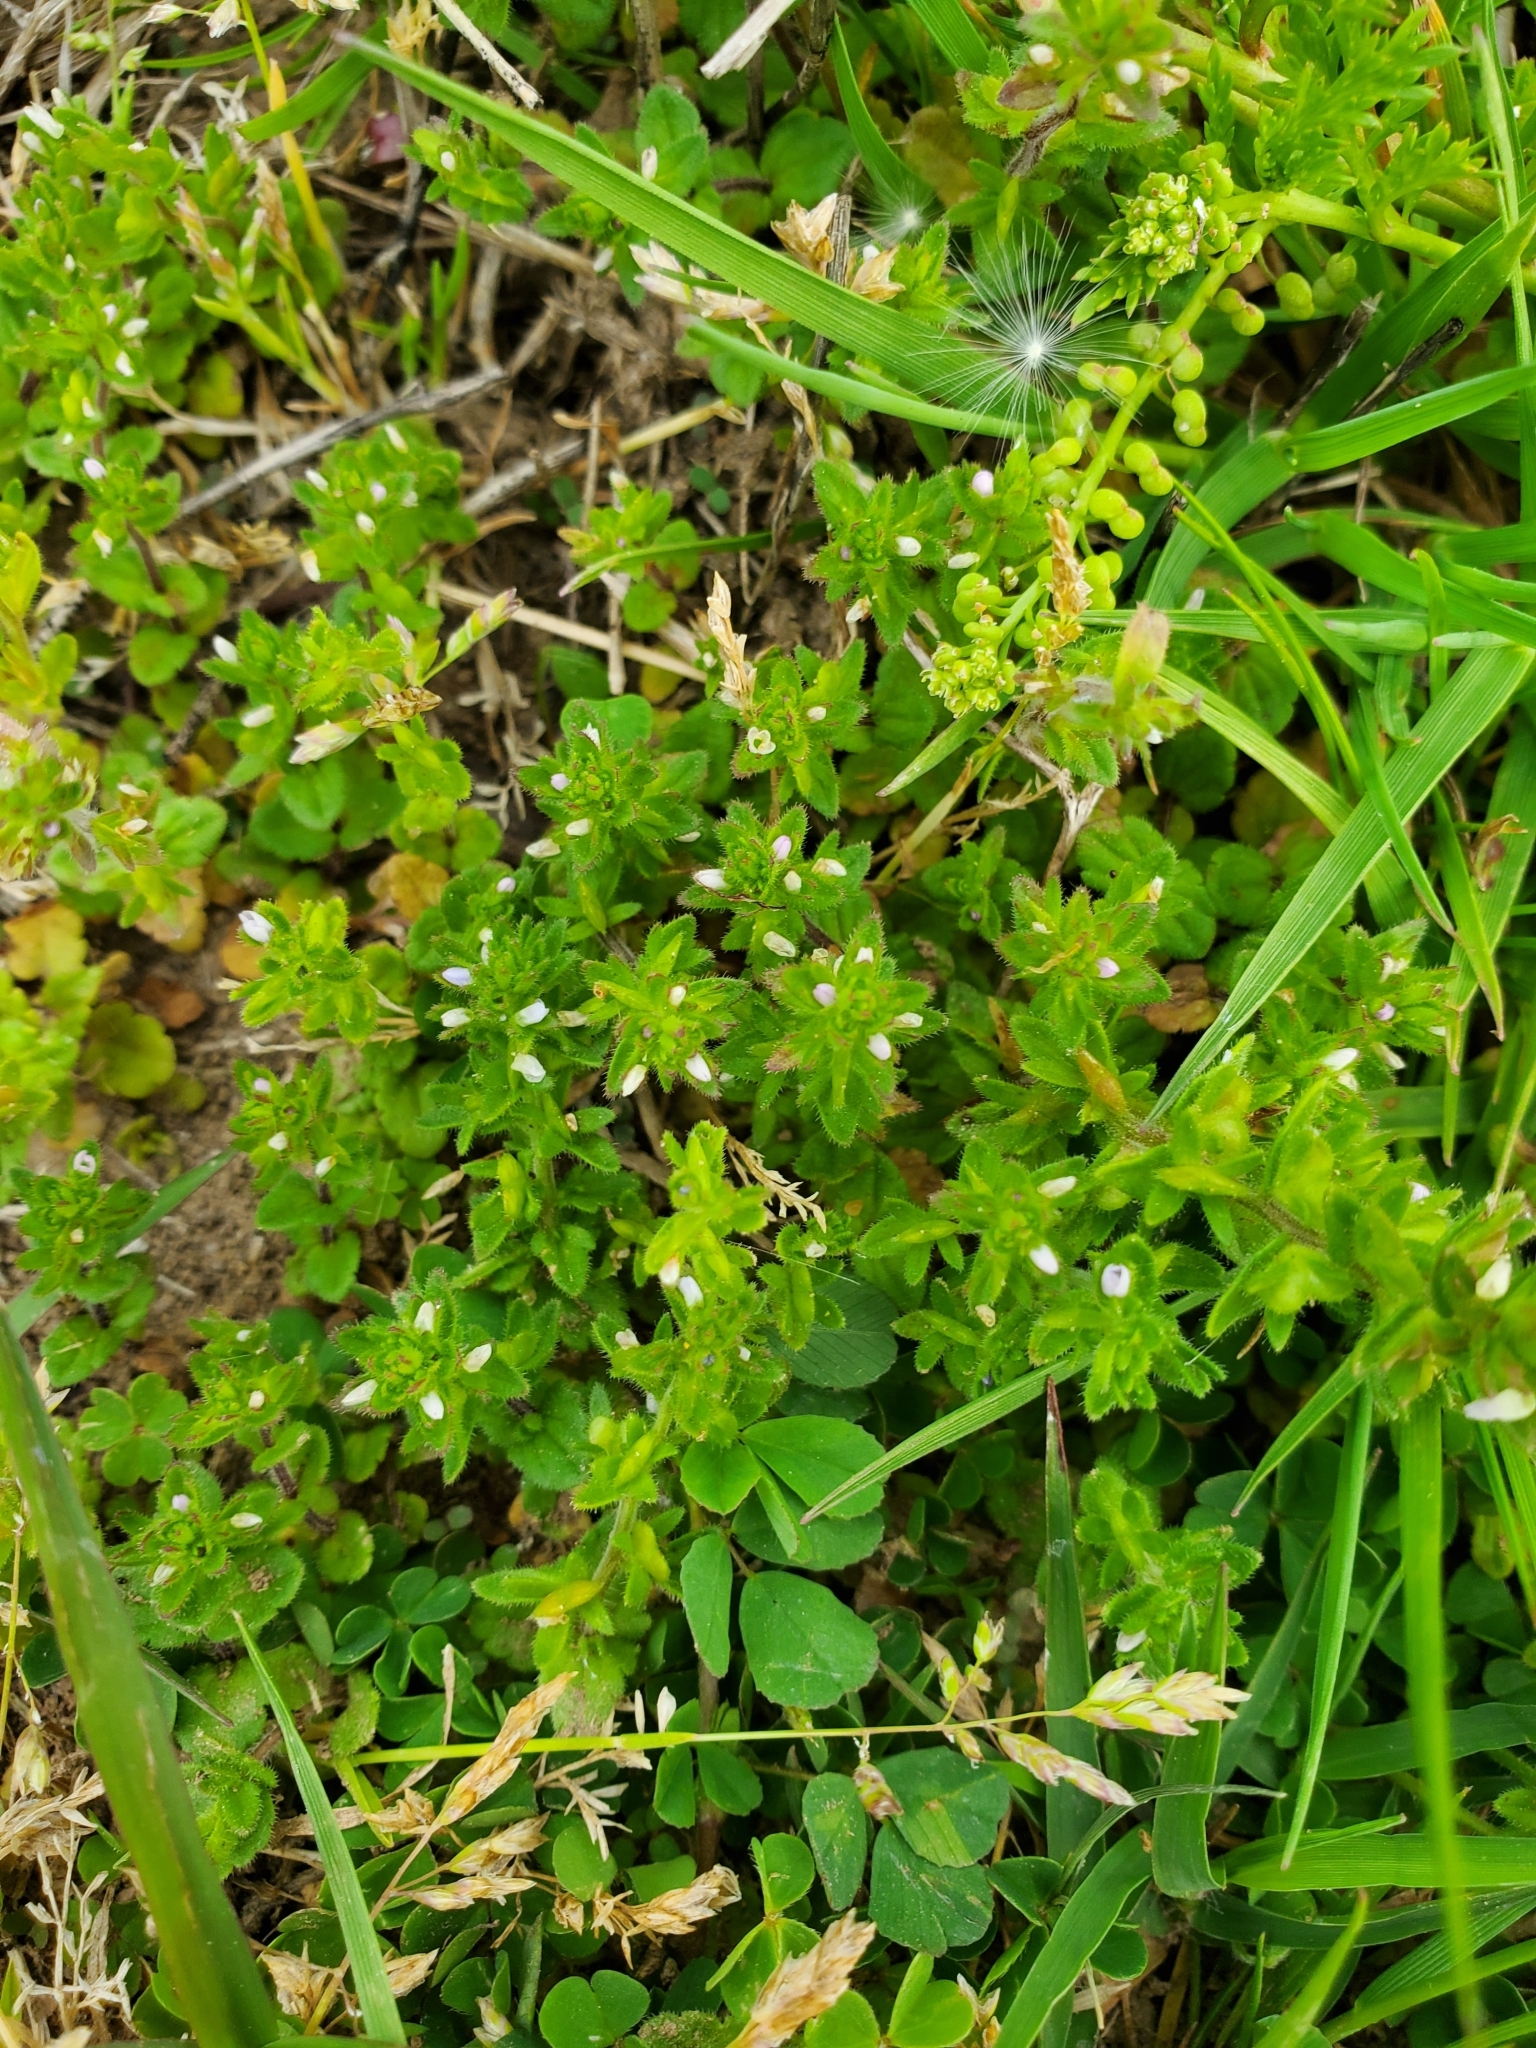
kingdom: Plantae
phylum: Tracheophyta
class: Magnoliopsida
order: Lamiales
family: Plantaginaceae
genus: Veronica
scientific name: Veronica arvensis
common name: Corn speedwell
